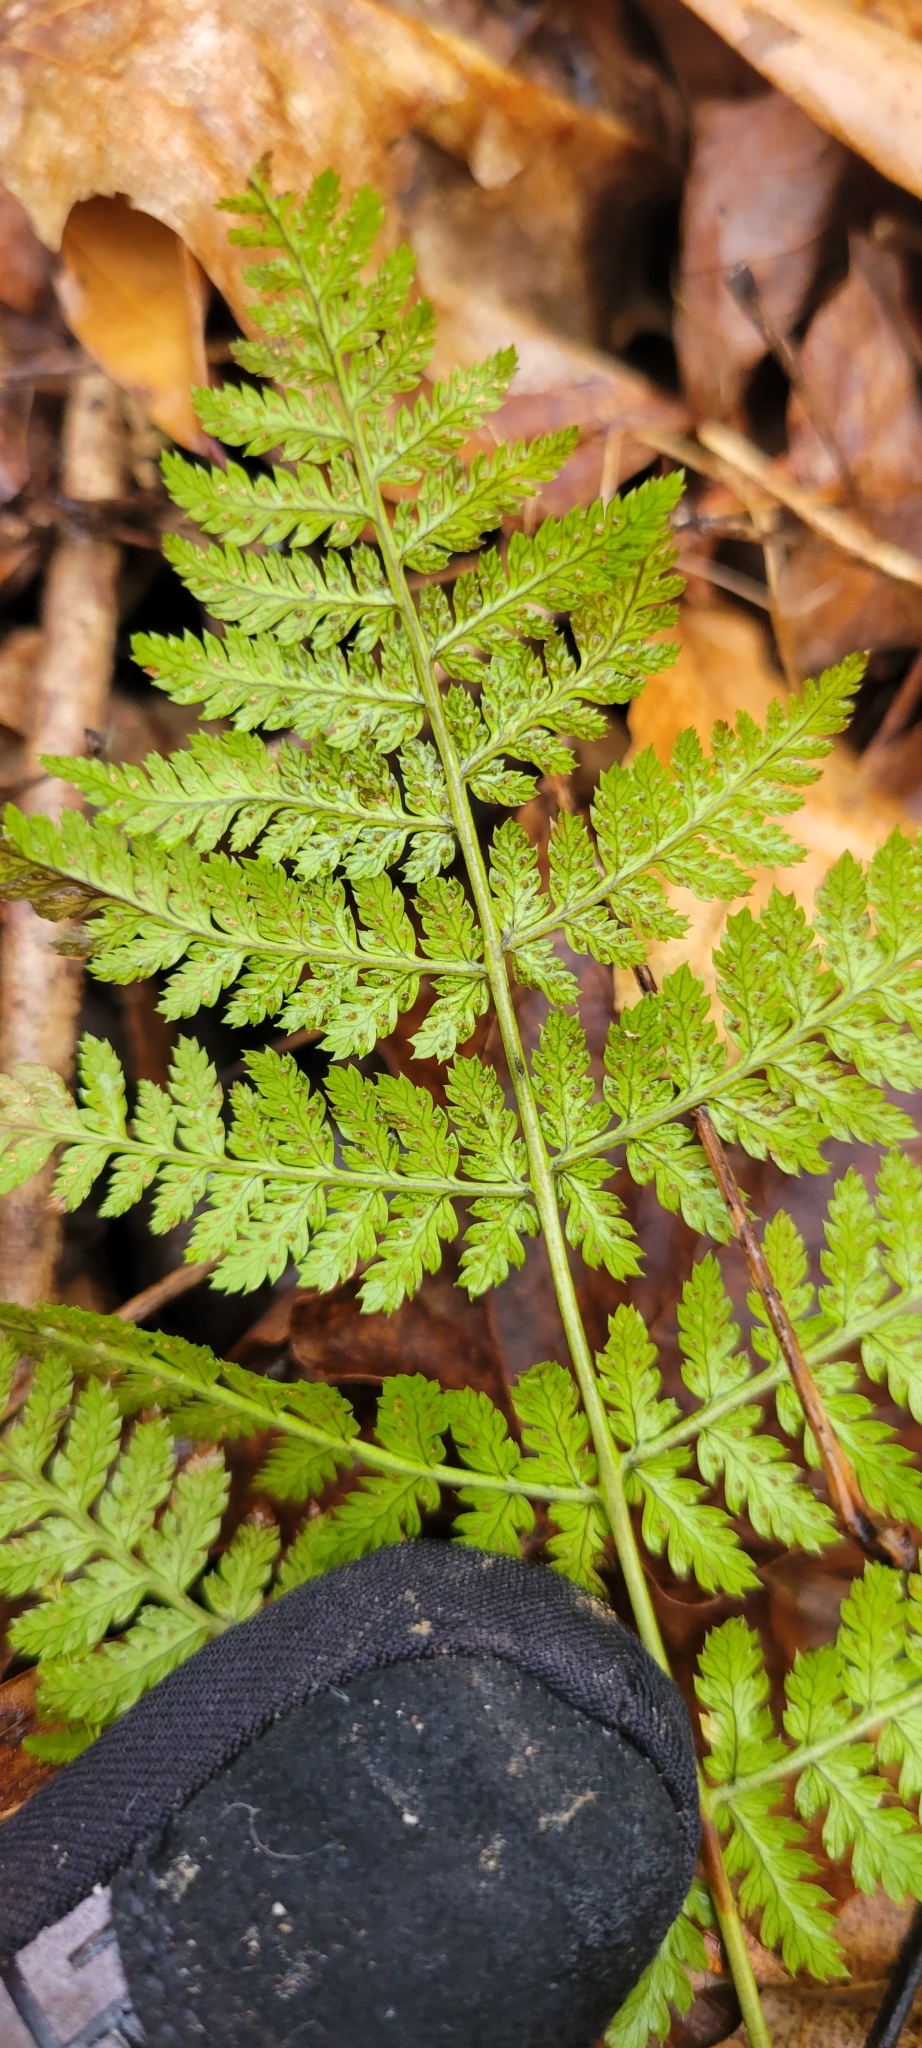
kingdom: Plantae
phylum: Tracheophyta
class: Polypodiopsida
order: Polypodiales
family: Dryopteridaceae
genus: Dryopteris
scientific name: Dryopteris intermedia
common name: Evergreen wood fern
